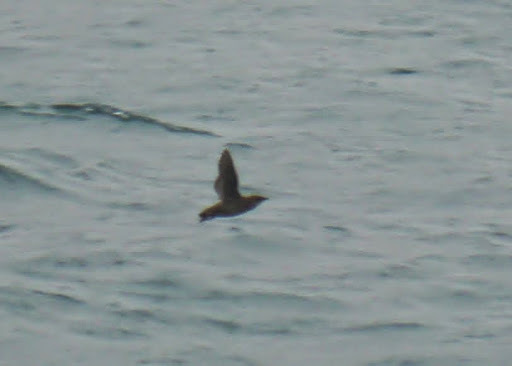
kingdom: Animalia
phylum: Chordata
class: Aves
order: Charadriiformes
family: Alcidae
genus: Brachyramphus
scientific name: Brachyramphus marmoratus
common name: Marbled murrelet
